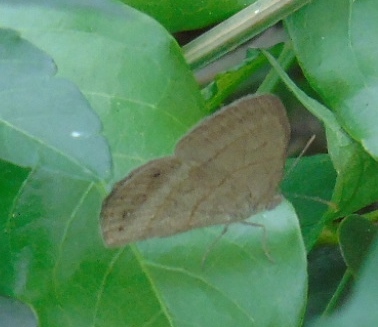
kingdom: Animalia
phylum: Arthropoda
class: Insecta
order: Lepidoptera
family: Nymphalidae
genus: Hermeuptychia
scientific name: Hermeuptychia
